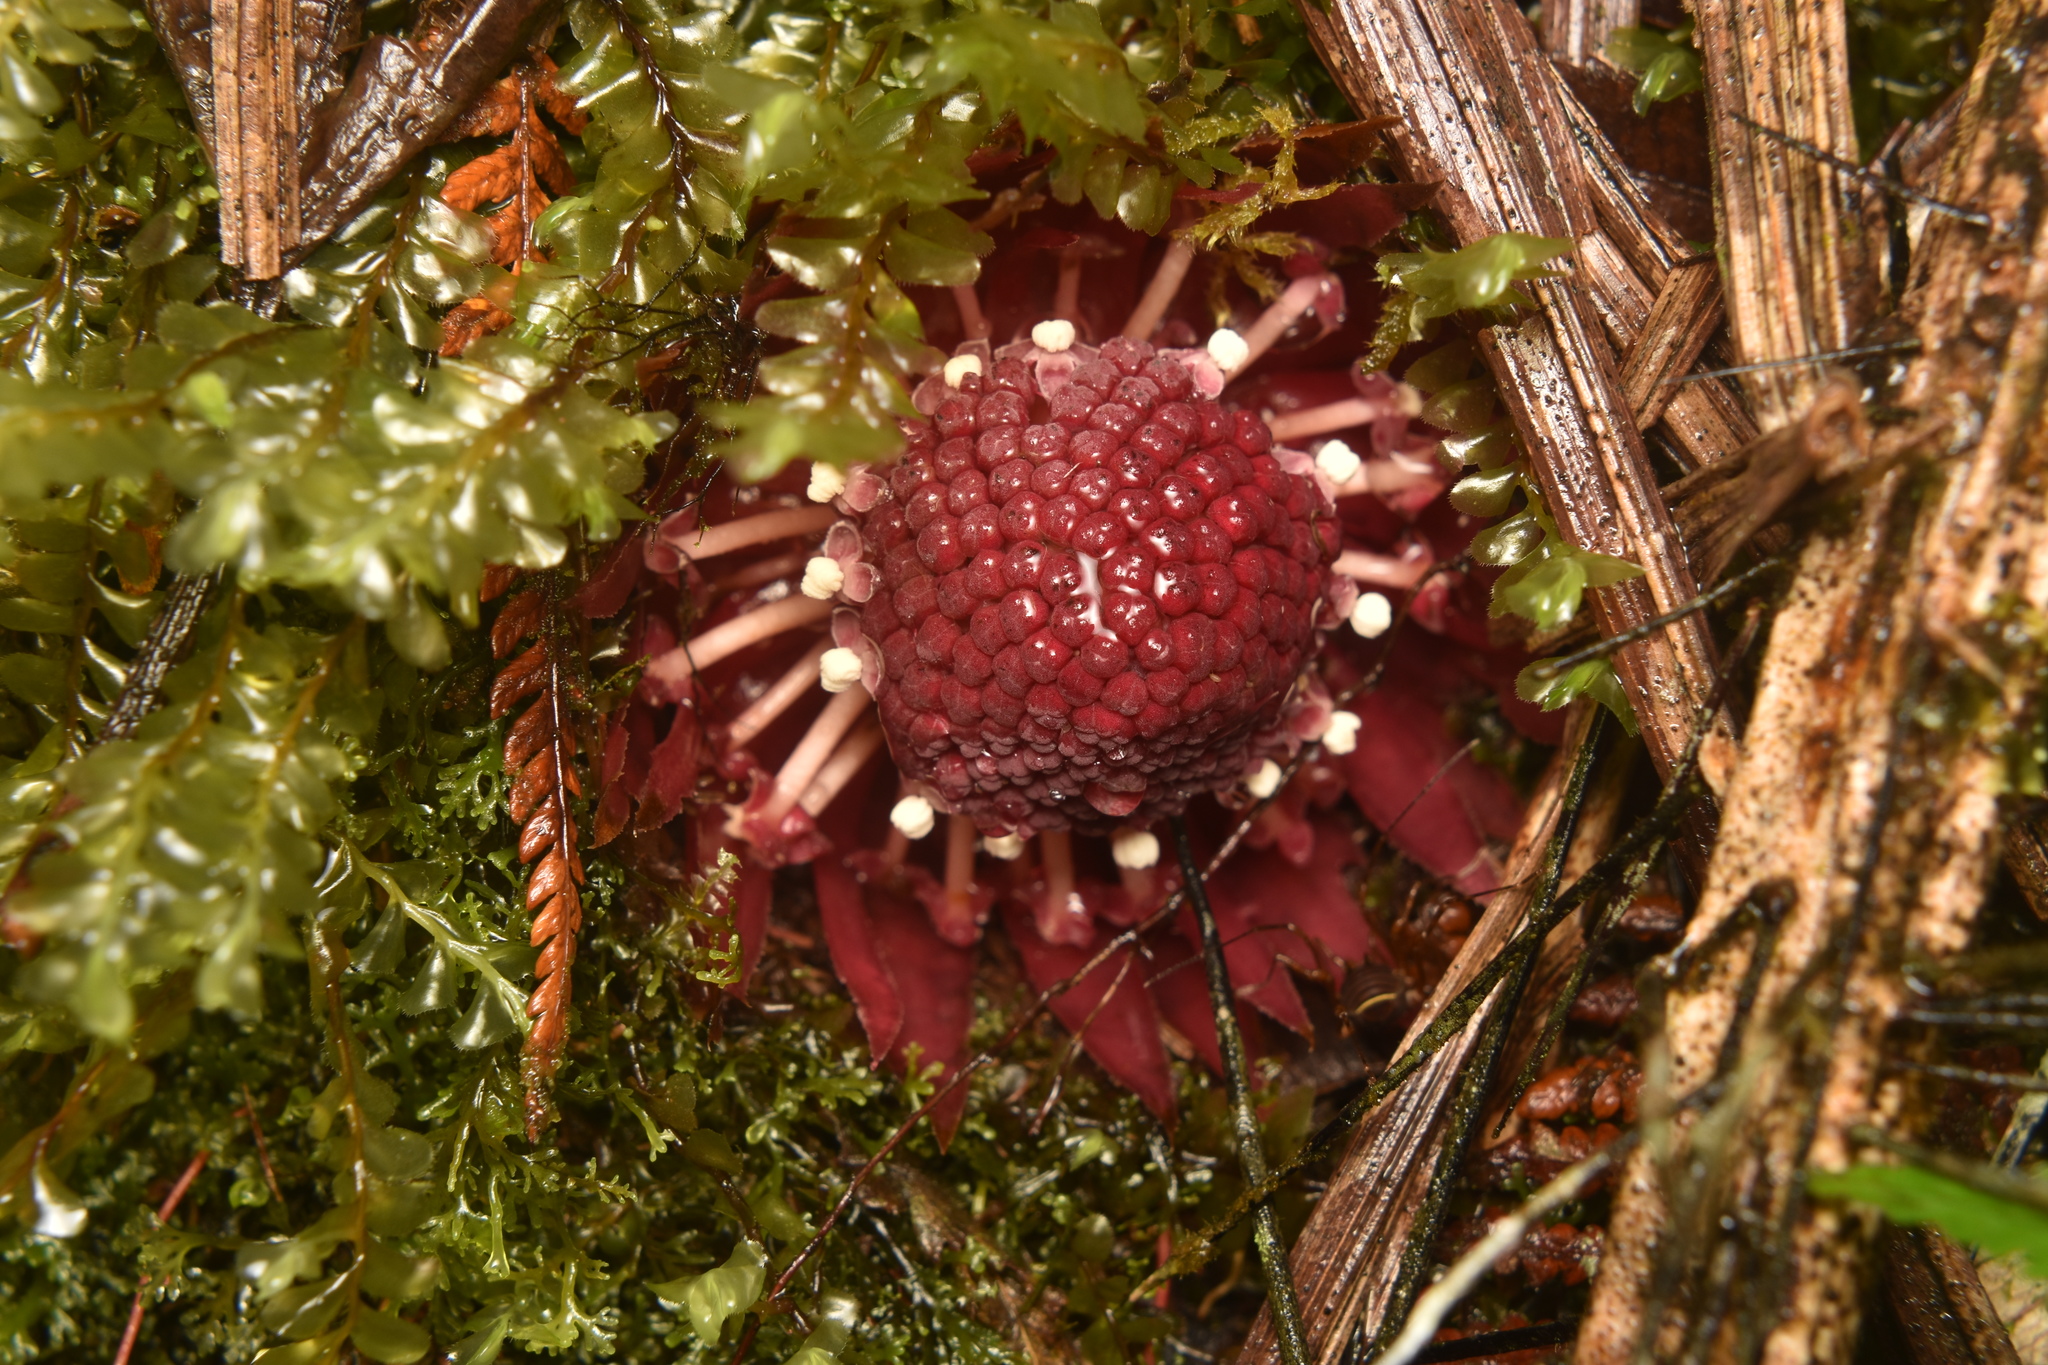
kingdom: Plantae
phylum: Tracheophyta
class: Magnoliopsida
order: Santalales
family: Balanophoraceae
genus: Langsdorffia
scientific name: Langsdorffia hypogaea
